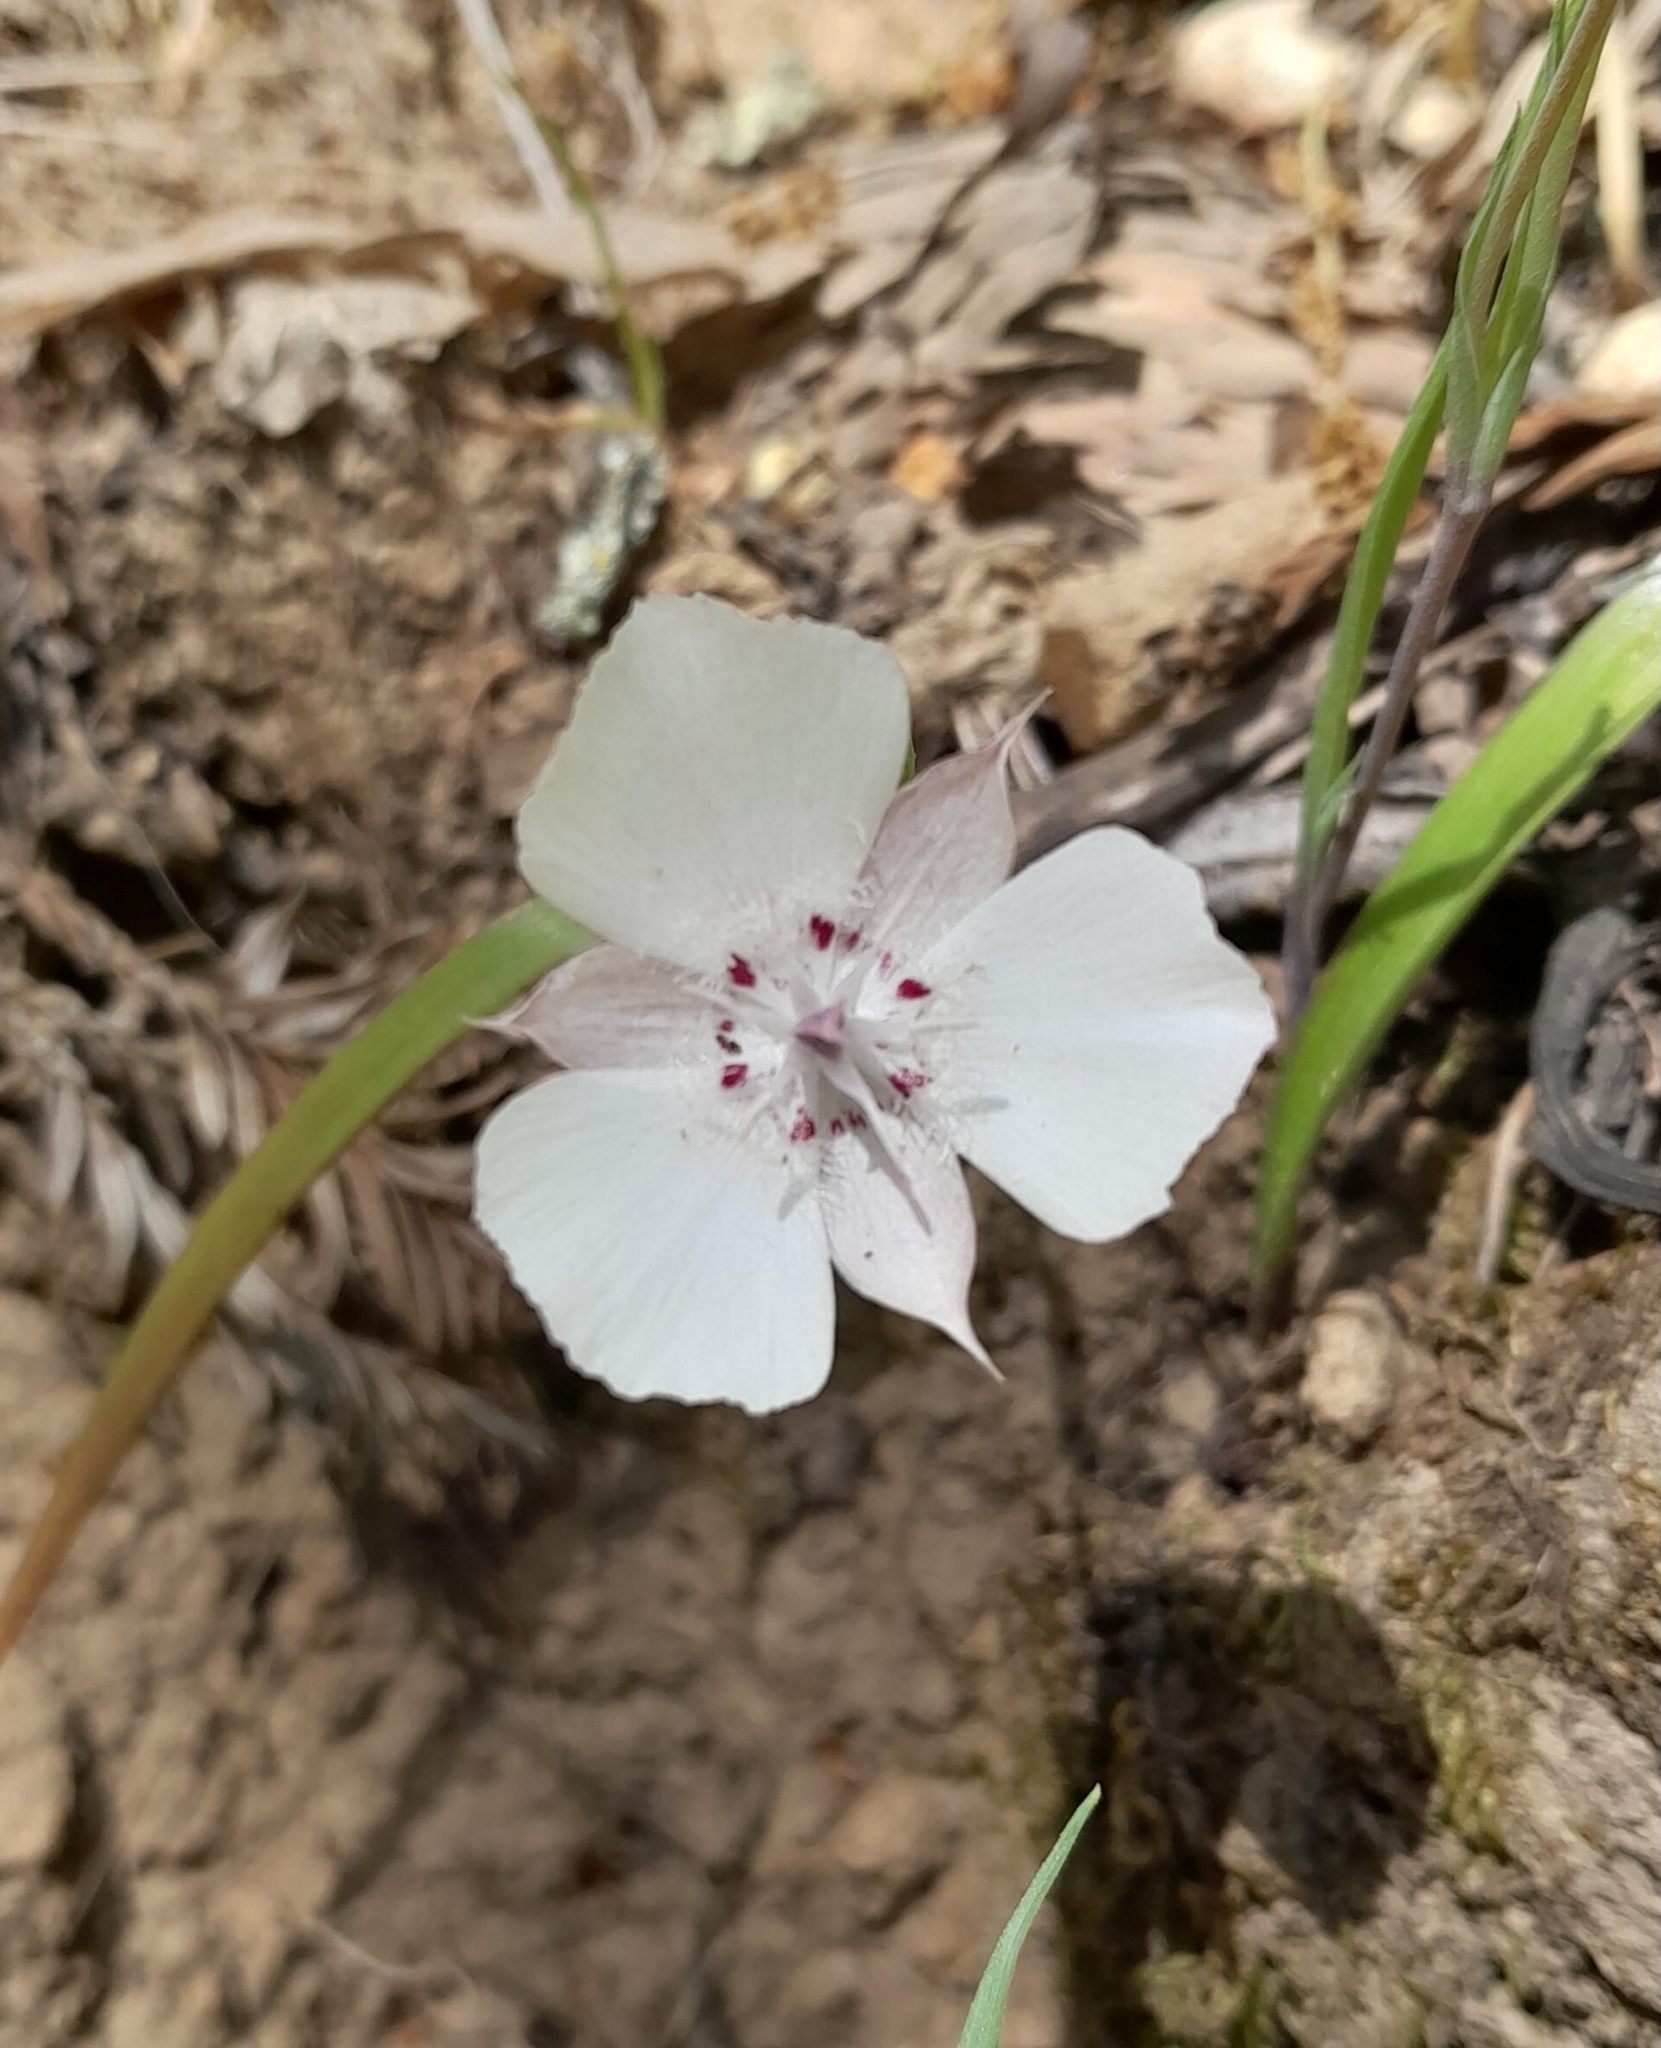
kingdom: Plantae
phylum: Tracheophyta
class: Liliopsida
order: Liliales
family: Liliaceae
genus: Calochortus
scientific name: Calochortus umbellatus
